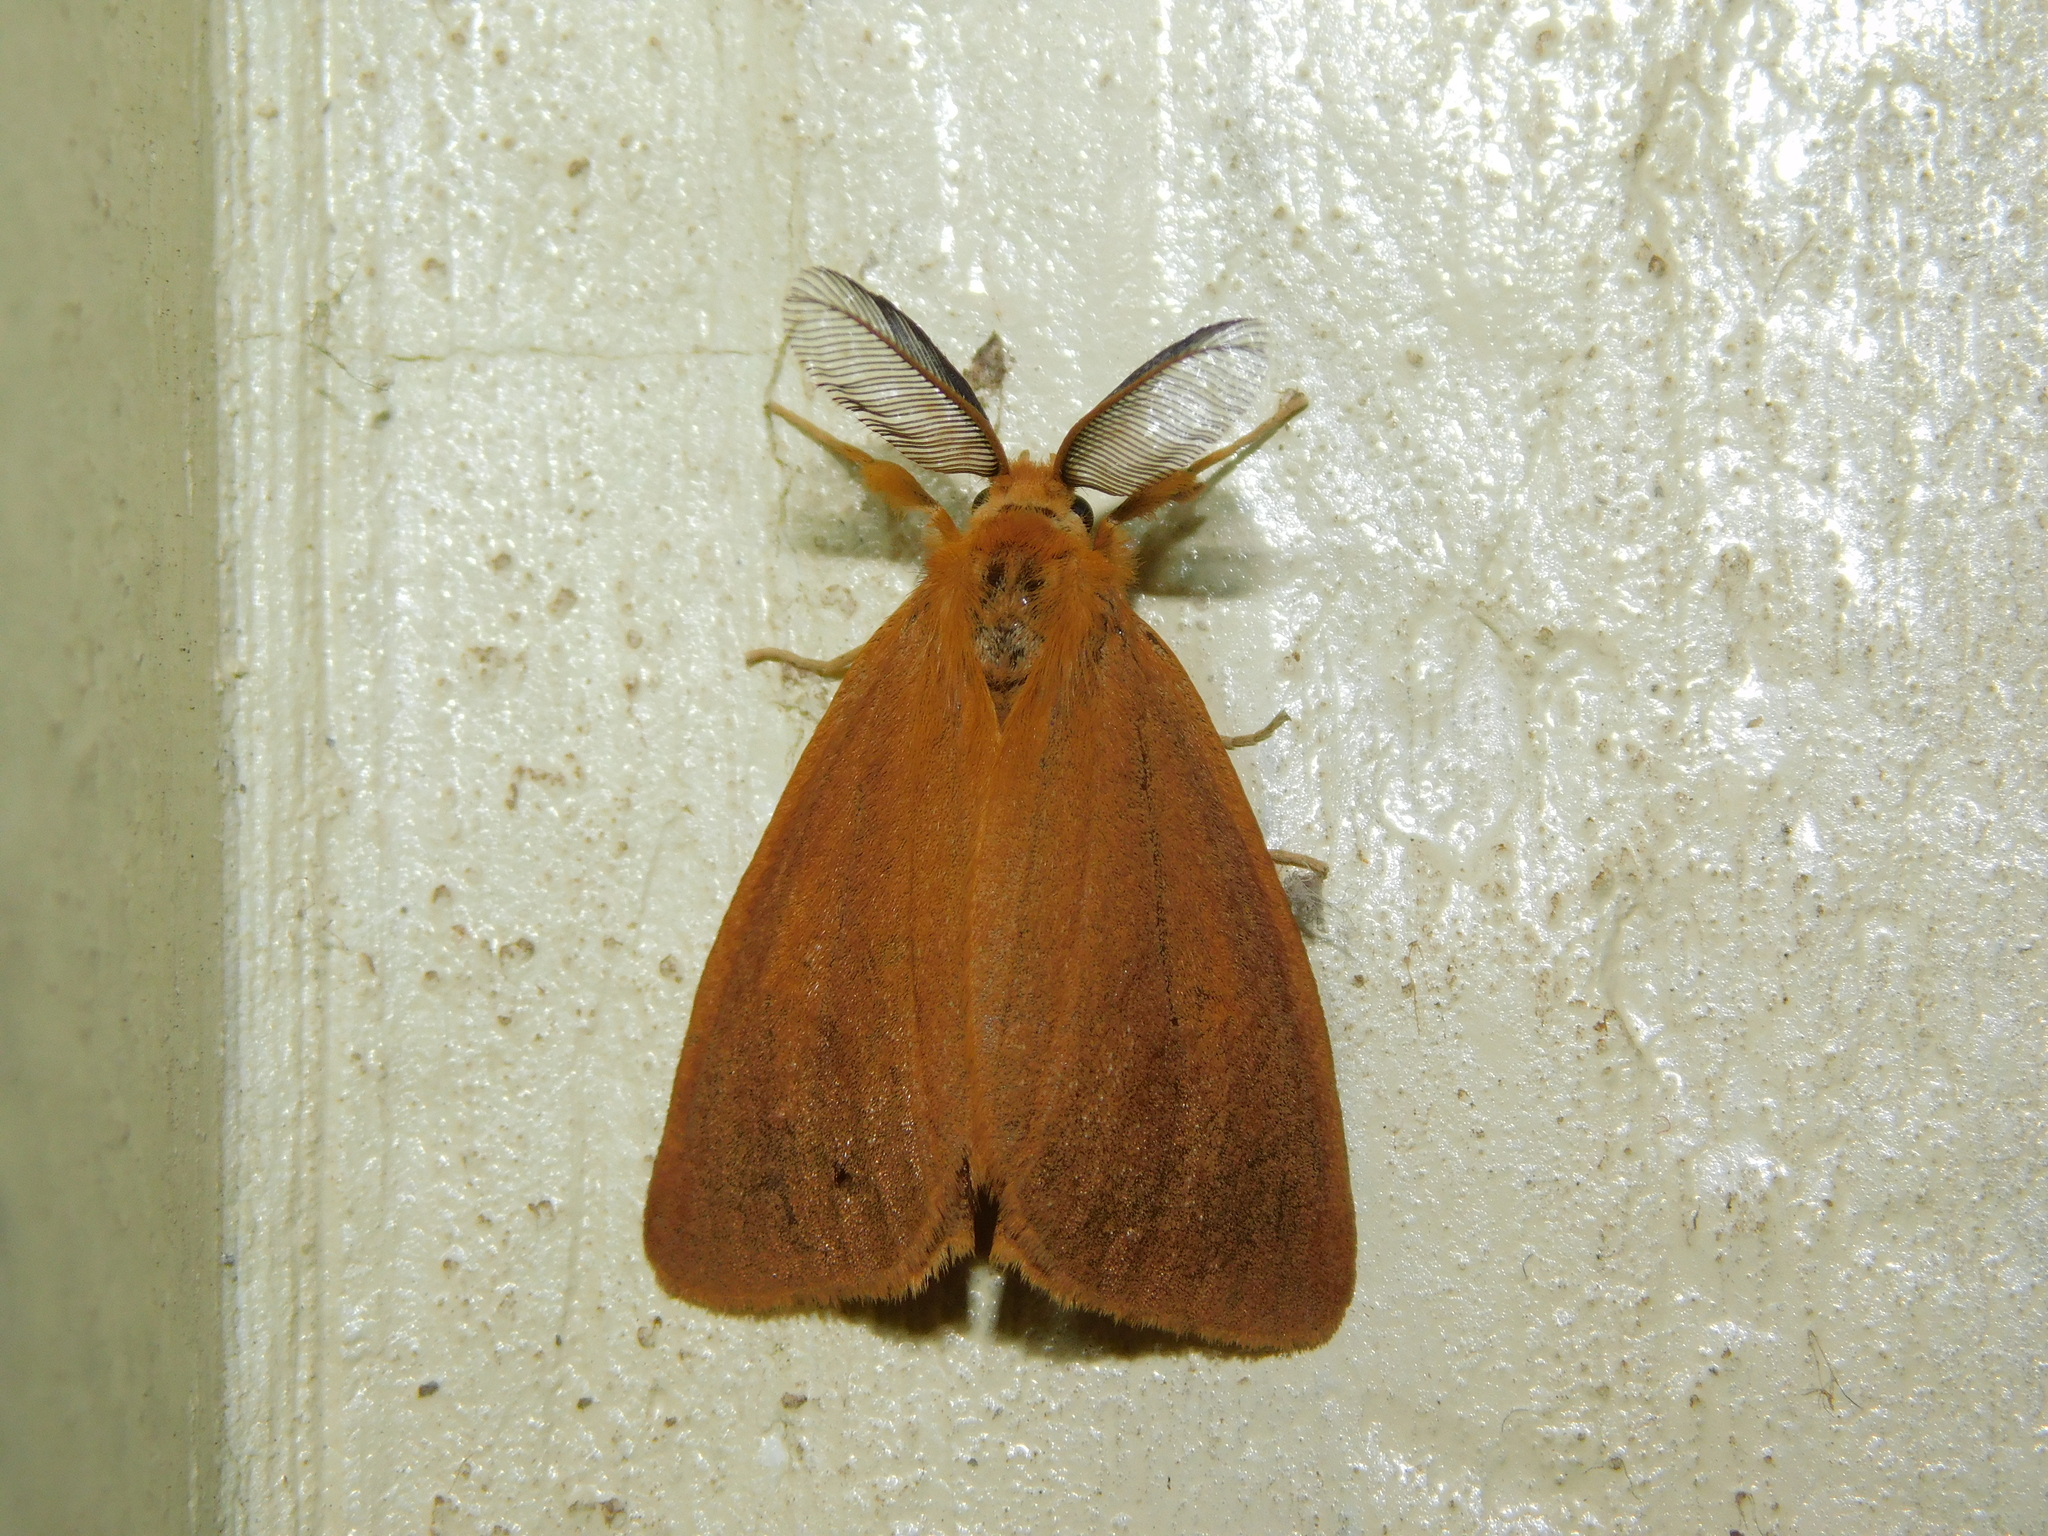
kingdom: Animalia
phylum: Arthropoda
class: Insecta
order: Lepidoptera
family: Erebidae
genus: Aroa
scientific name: Aroa clara
